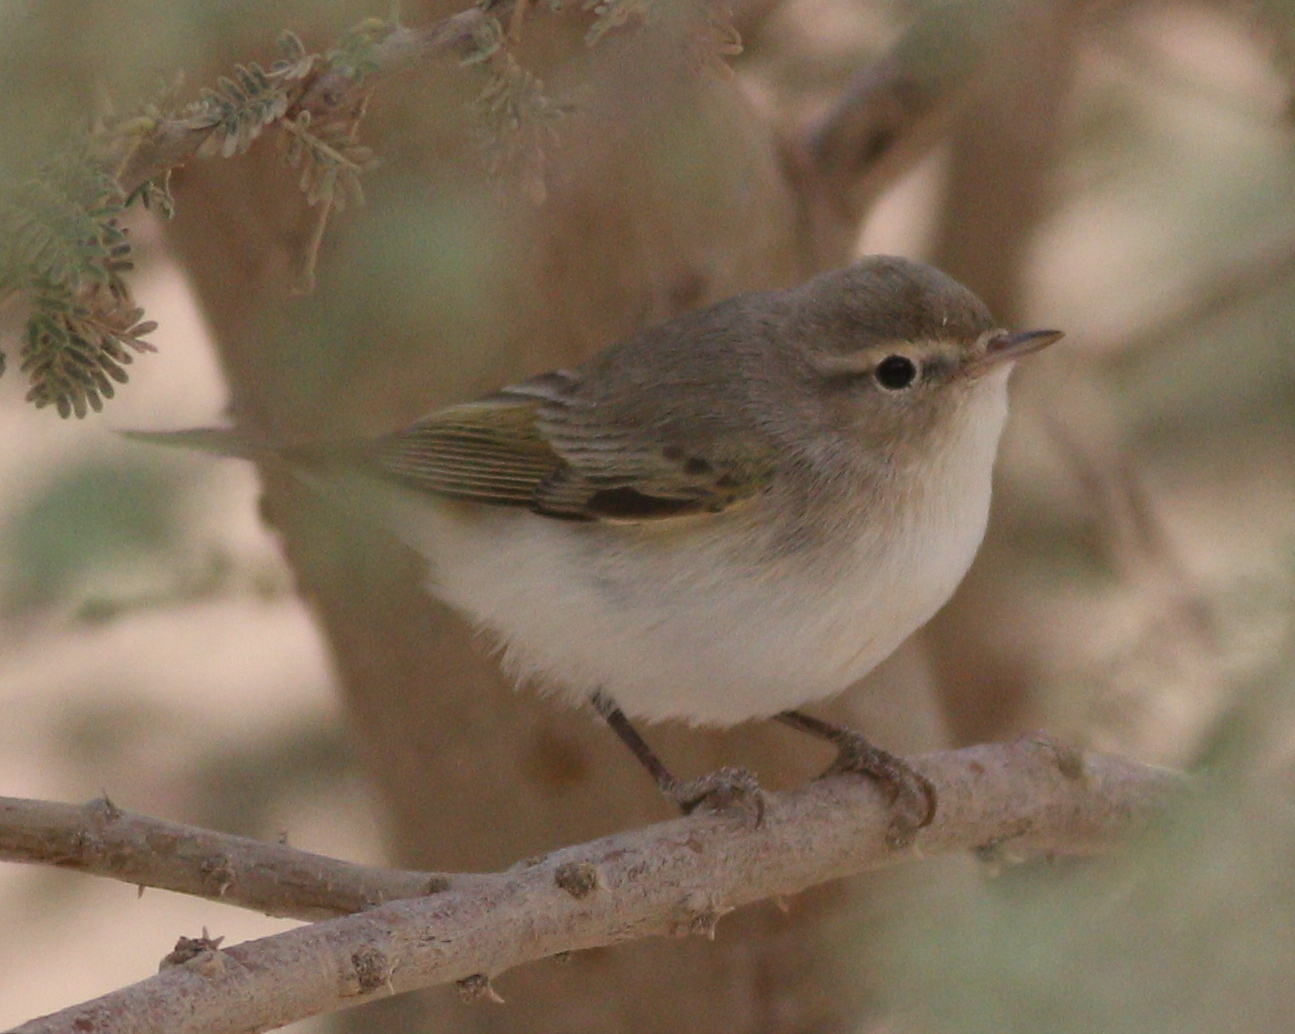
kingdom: Animalia
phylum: Chordata
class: Aves
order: Passeriformes
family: Phylloscopidae
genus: Phylloscopus
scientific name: Phylloscopus orientalis
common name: Eastern bonelli's warbler
